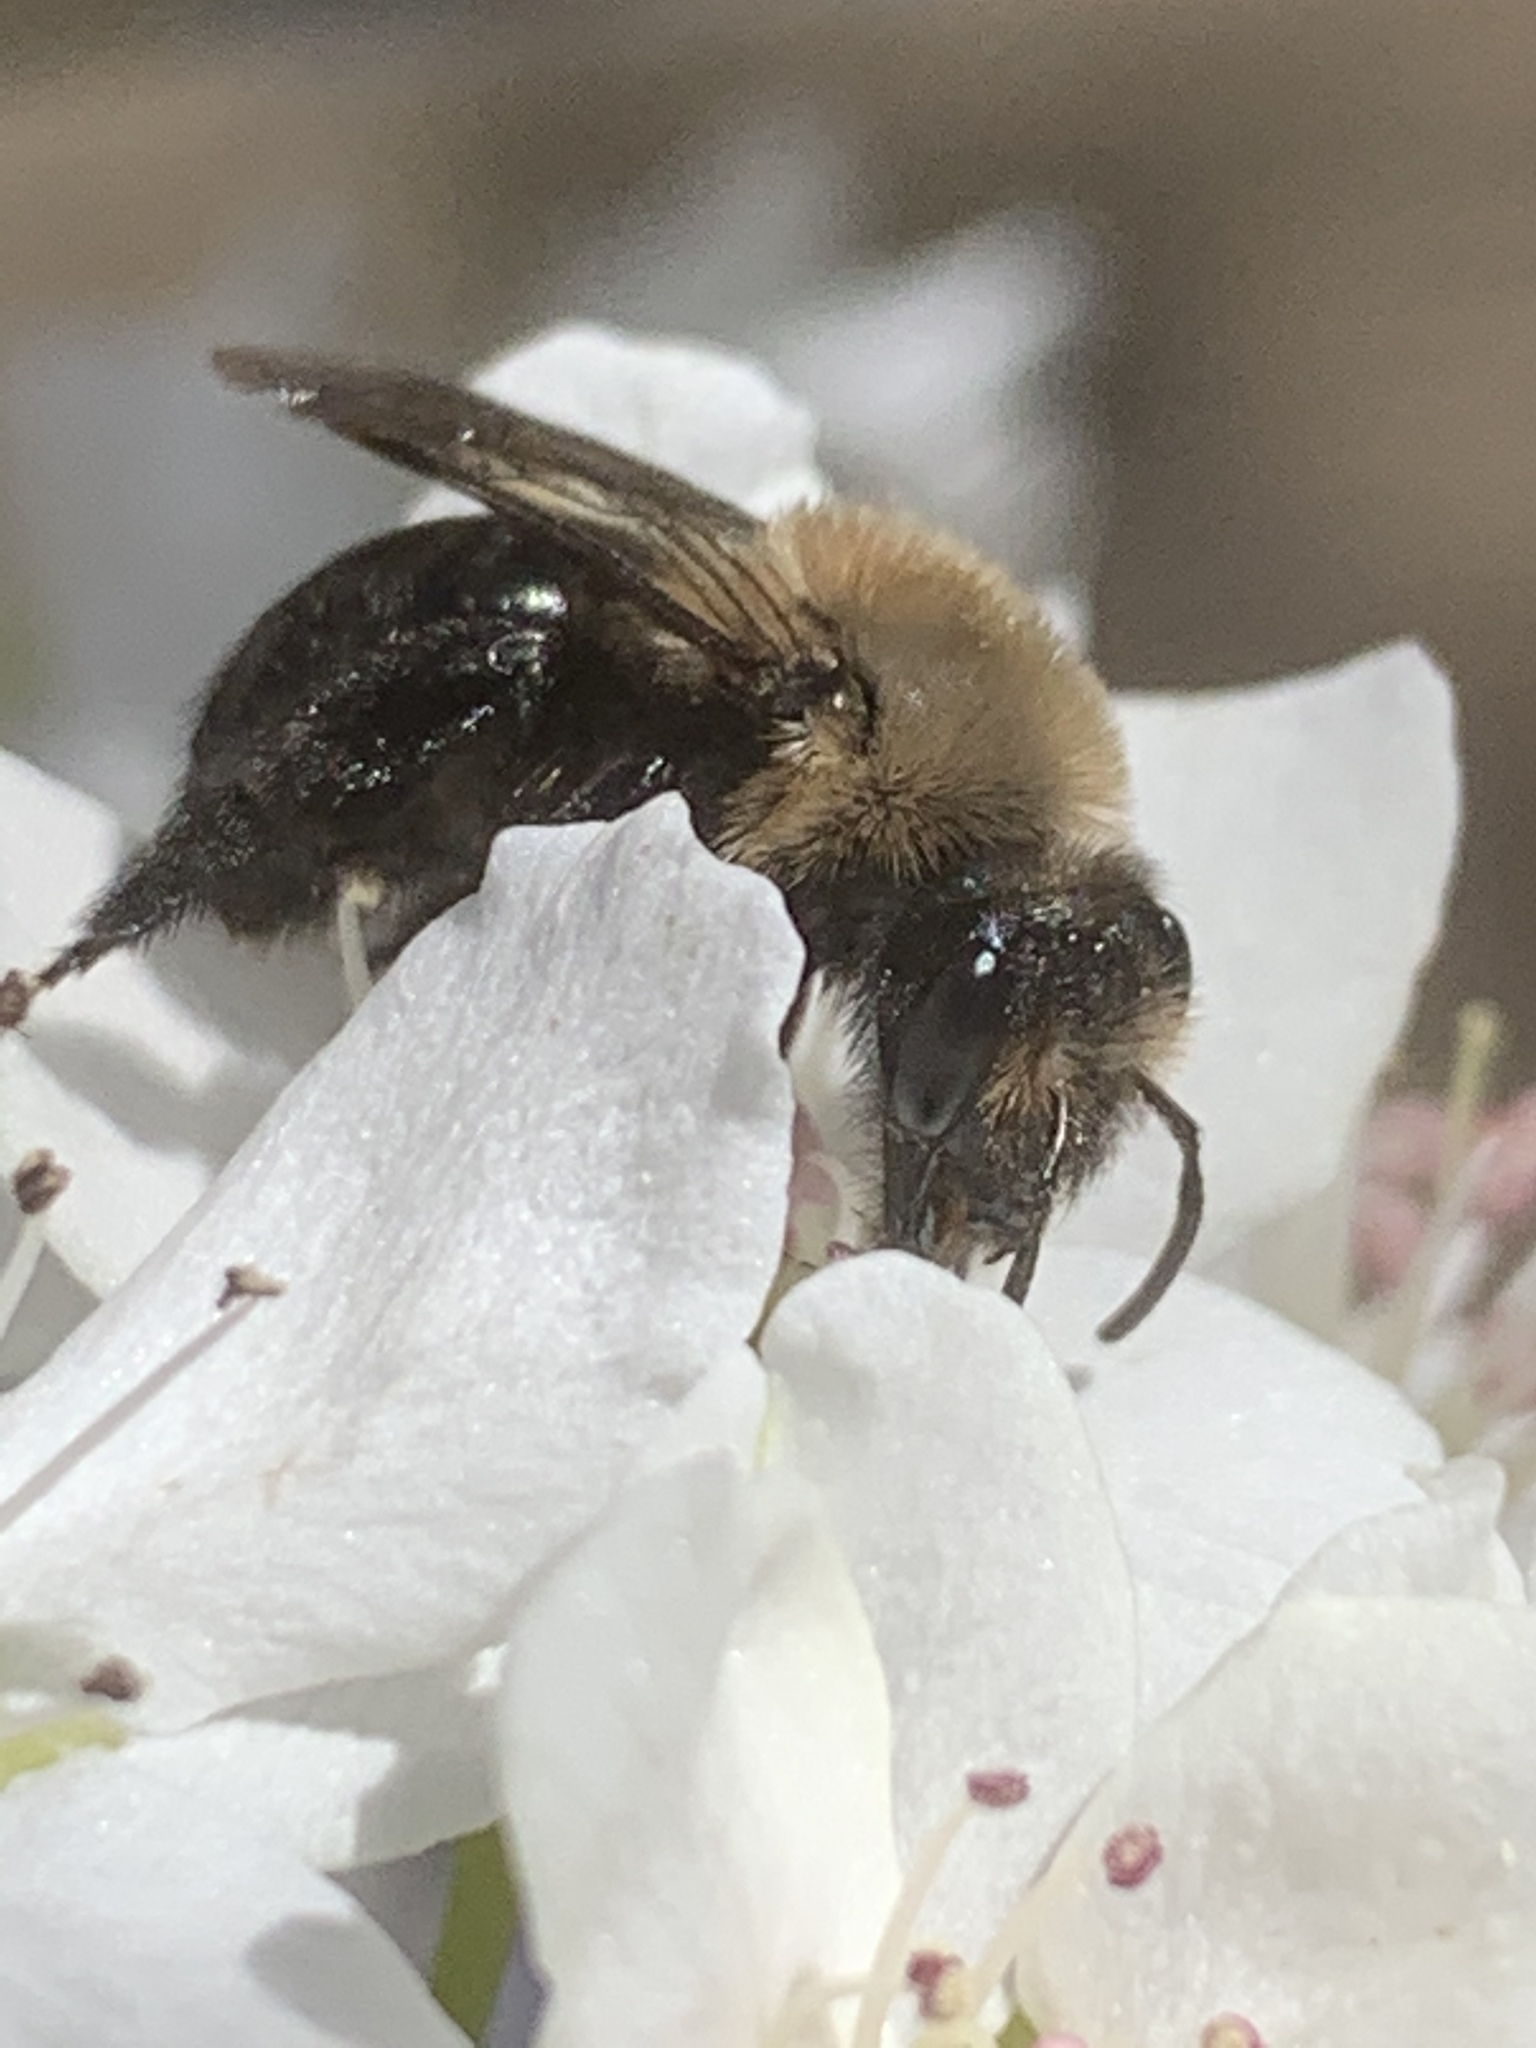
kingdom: Animalia
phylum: Arthropoda
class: Insecta
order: Hymenoptera
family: Andrenidae
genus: Andrena
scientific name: Andrena carlini
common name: Carlin's mining bee
